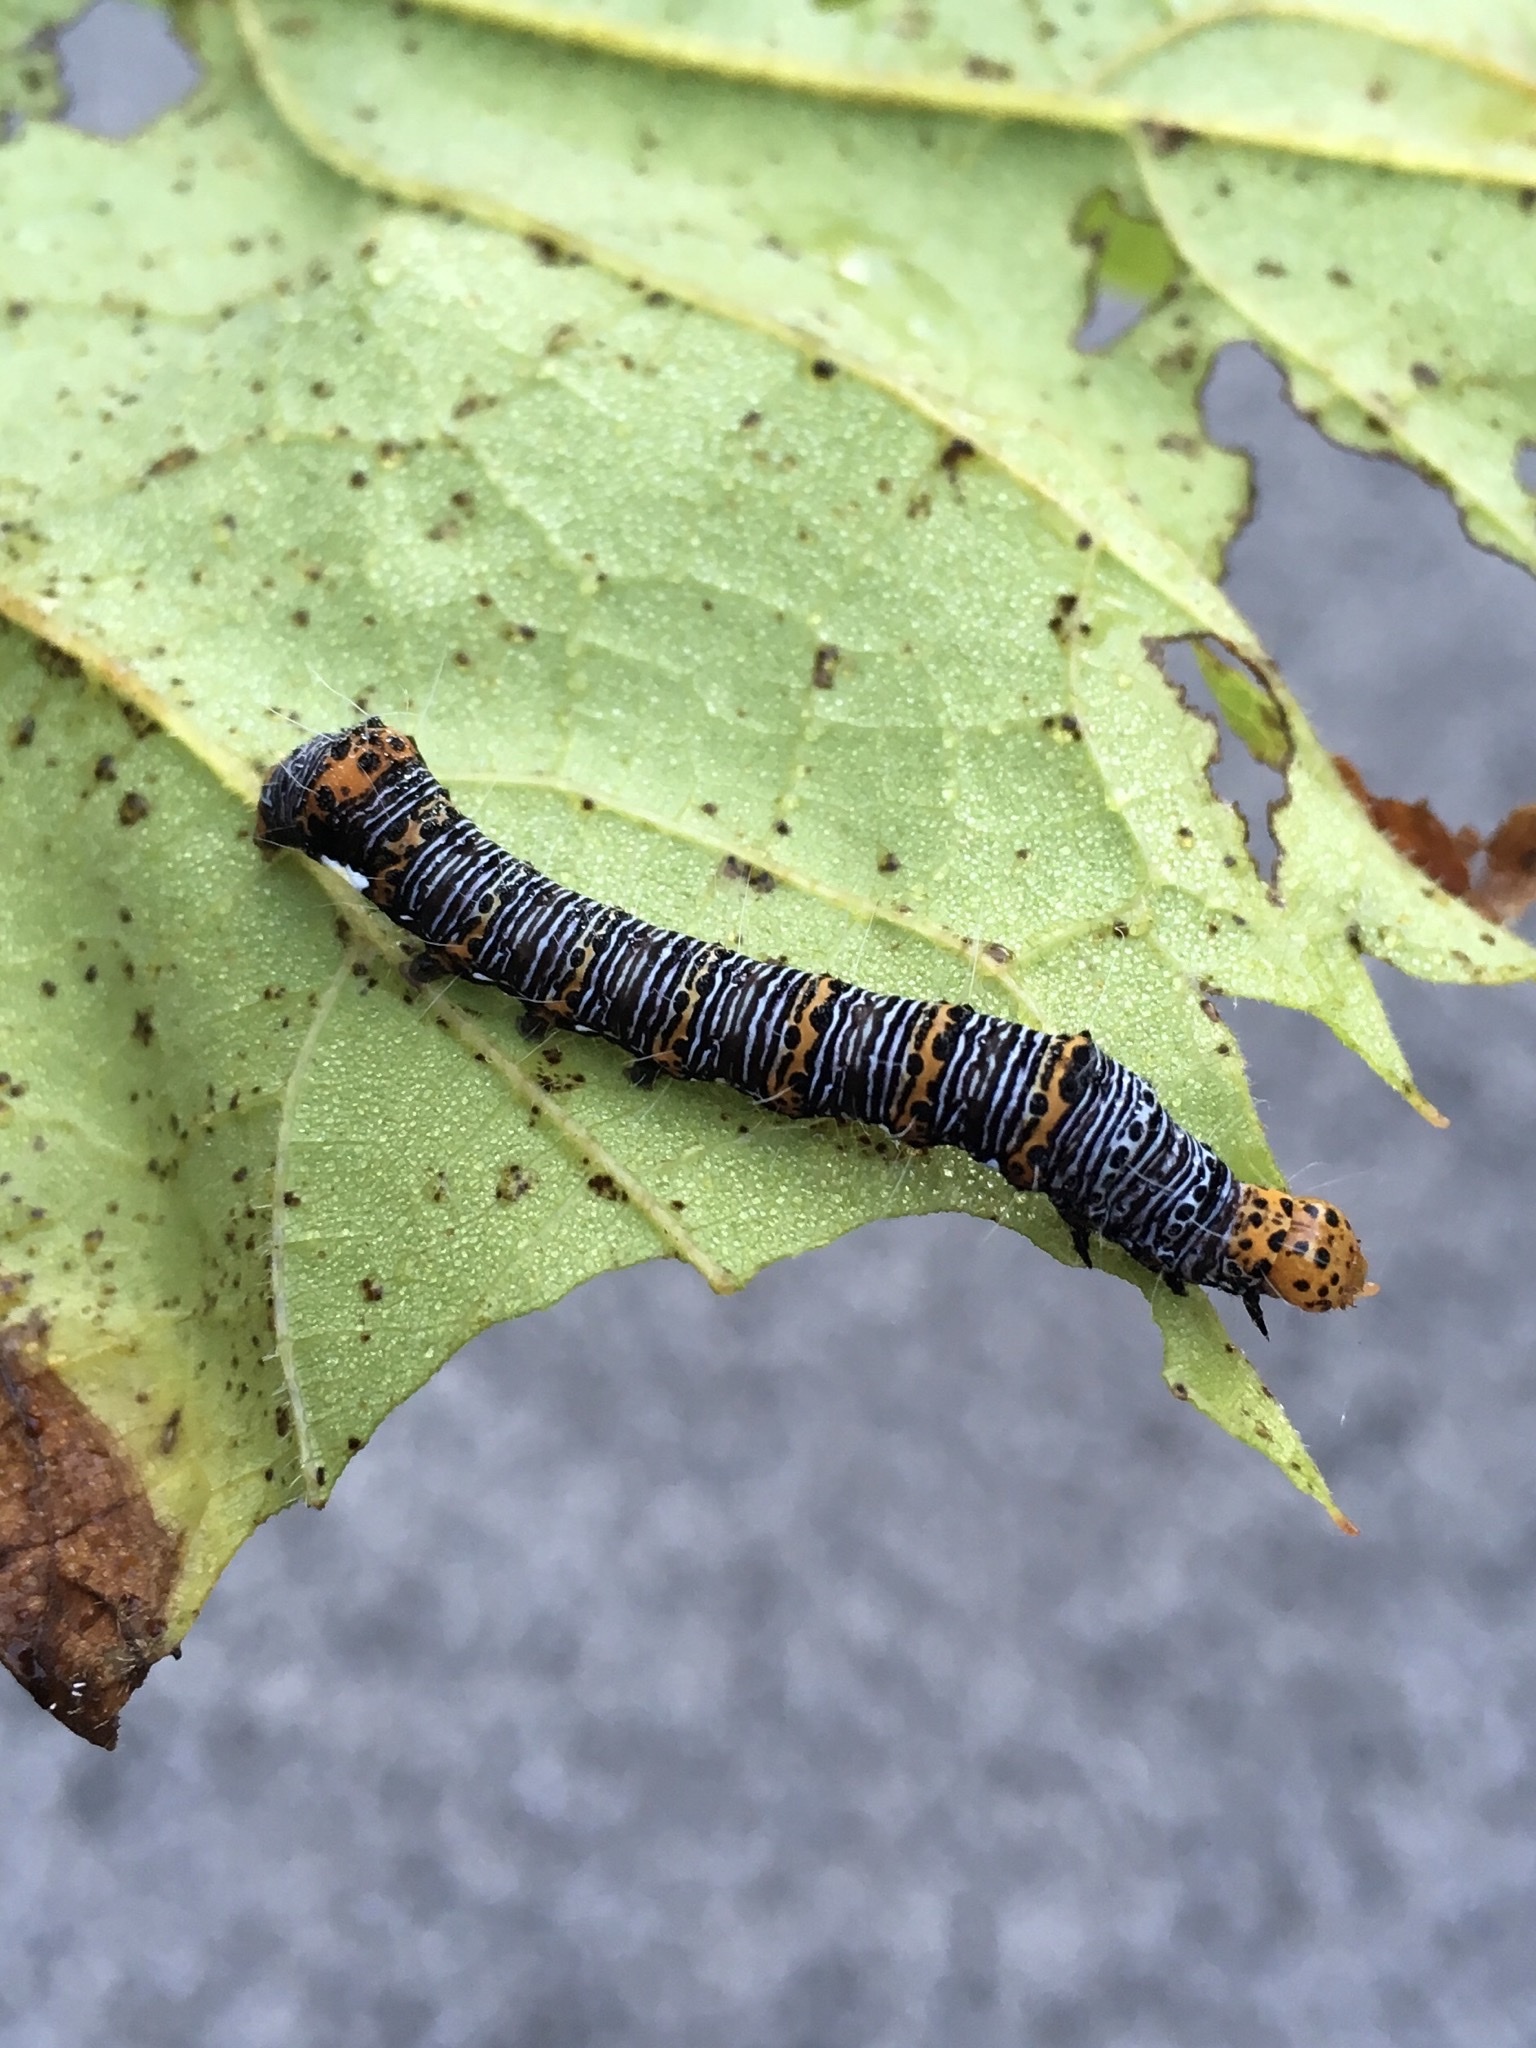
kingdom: Animalia
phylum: Arthropoda
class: Insecta
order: Lepidoptera
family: Noctuidae
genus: Alypia
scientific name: Alypia octomaculata
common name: Eight-spotted forester
